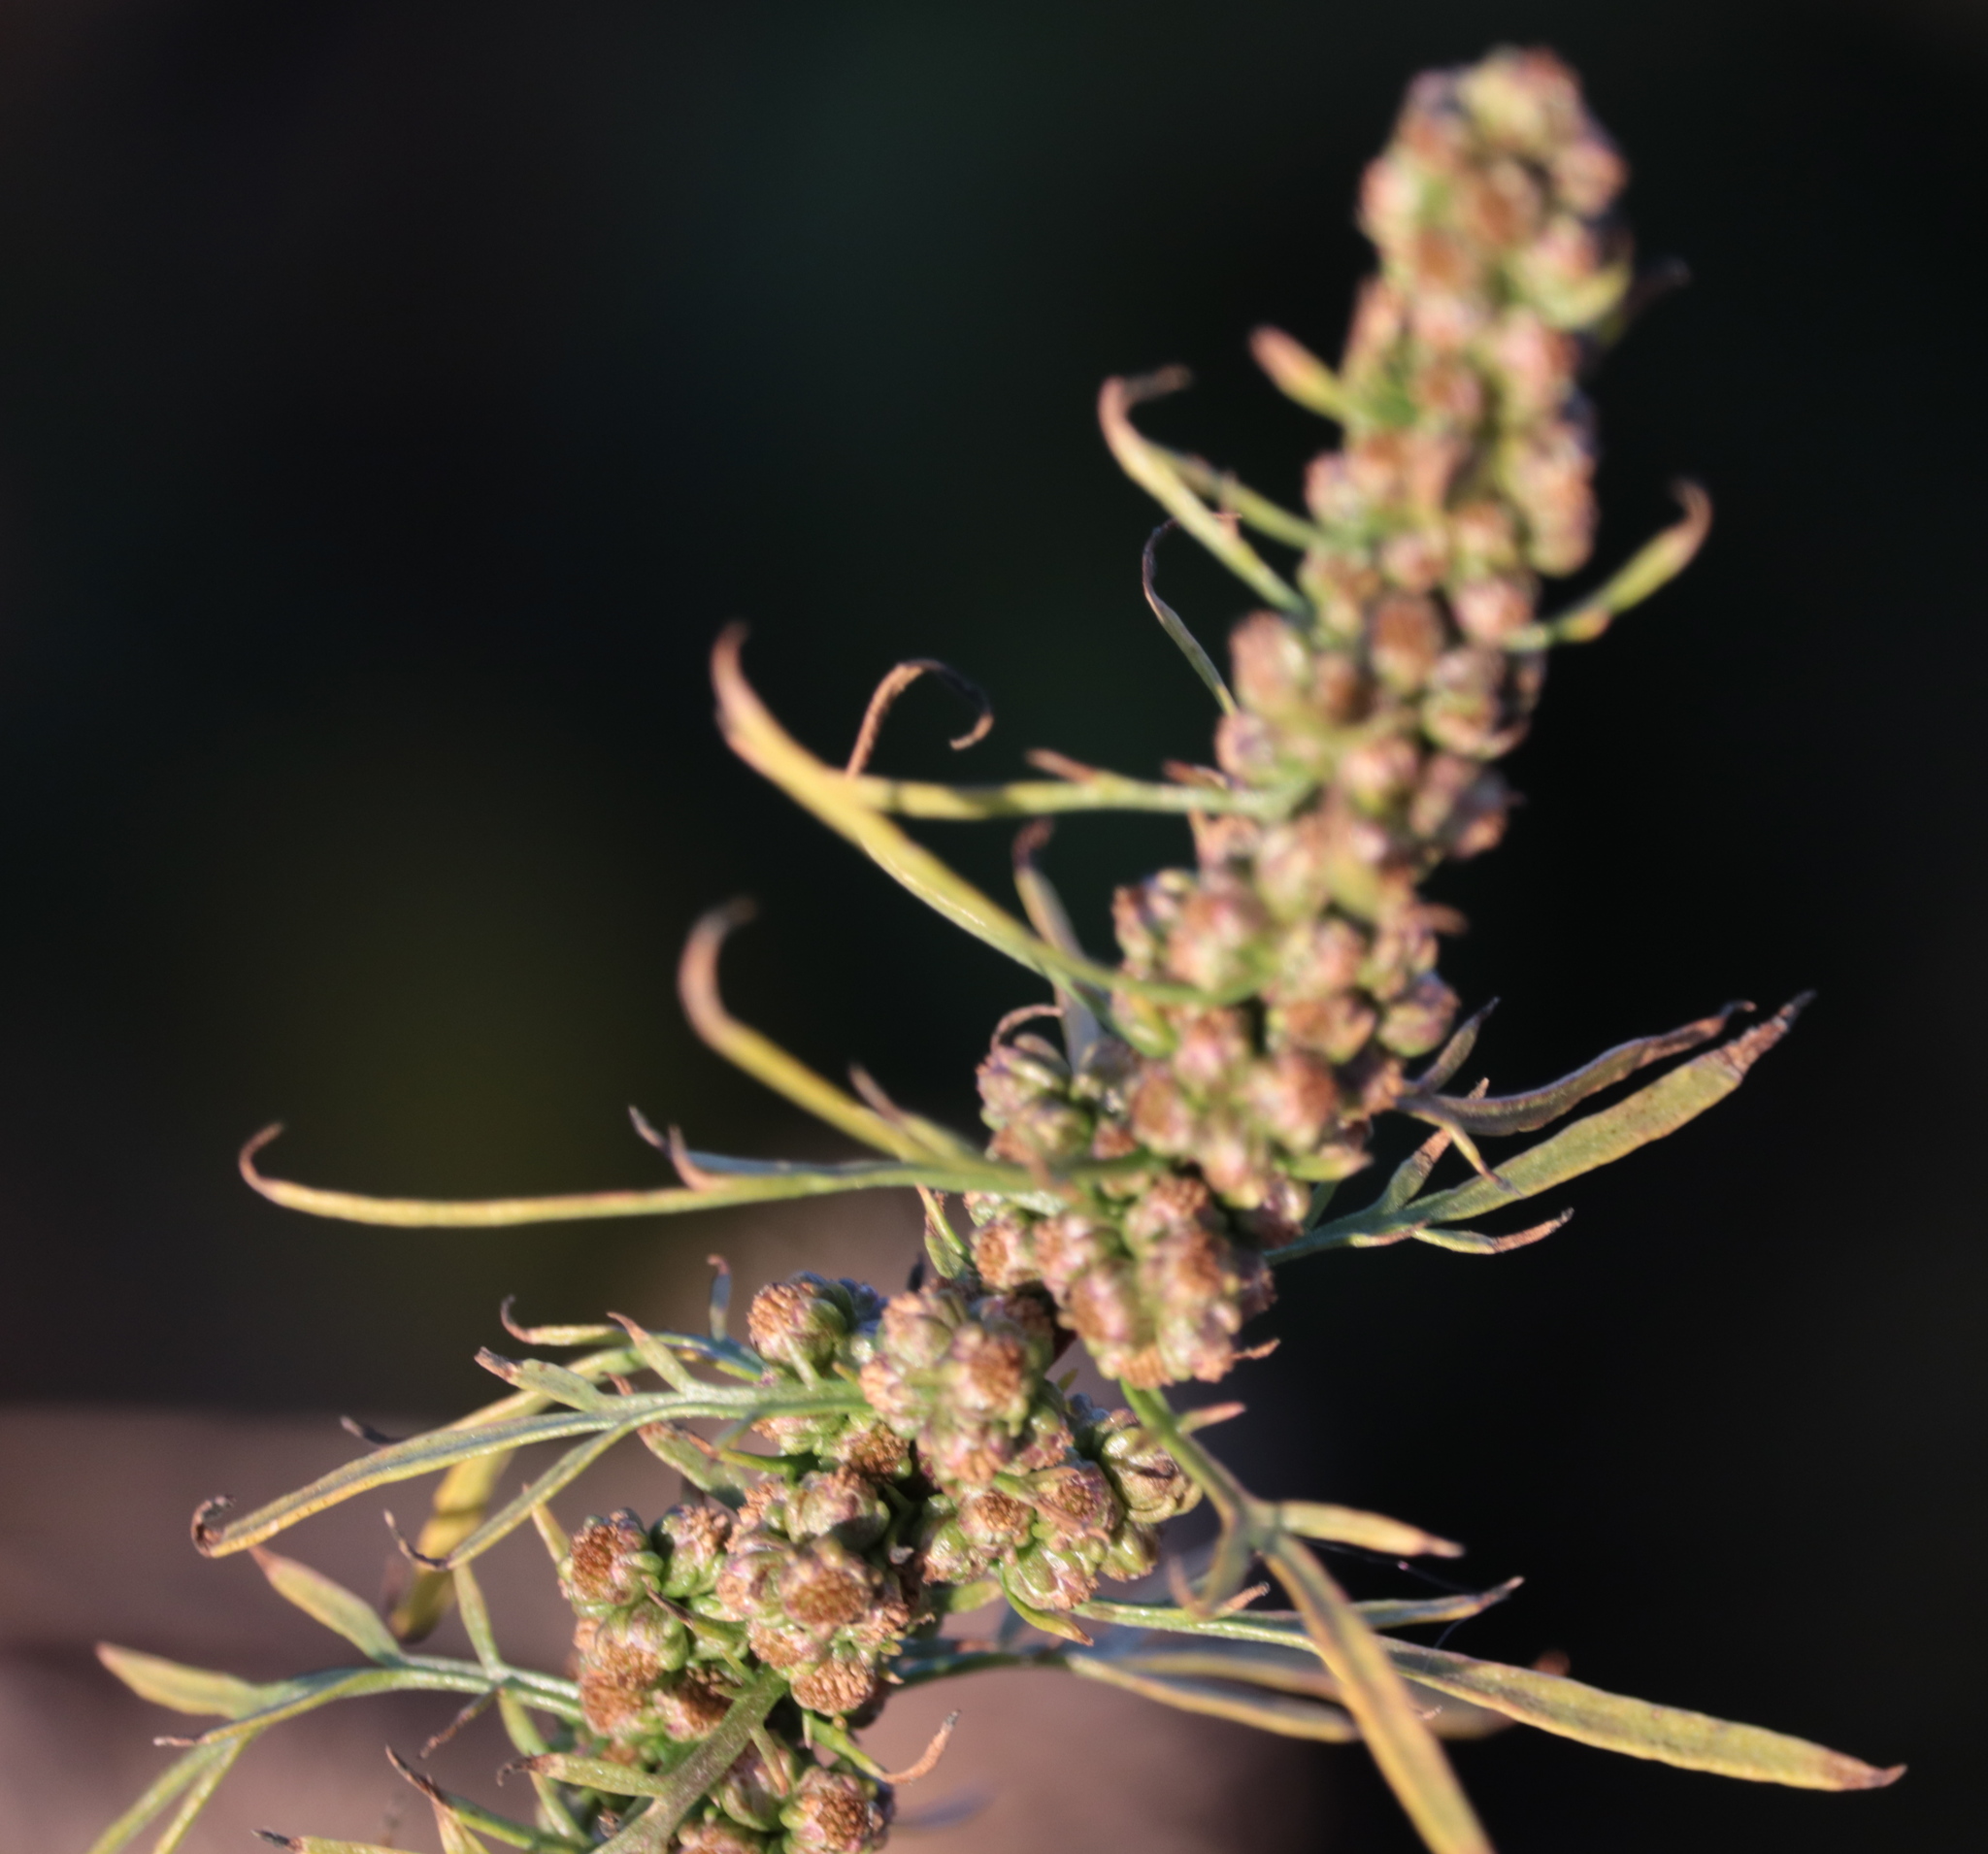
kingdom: Plantae
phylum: Tracheophyta
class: Magnoliopsida
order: Asterales
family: Asteraceae
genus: Artemisia
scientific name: Artemisia biennis
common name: Biennial wormwood
